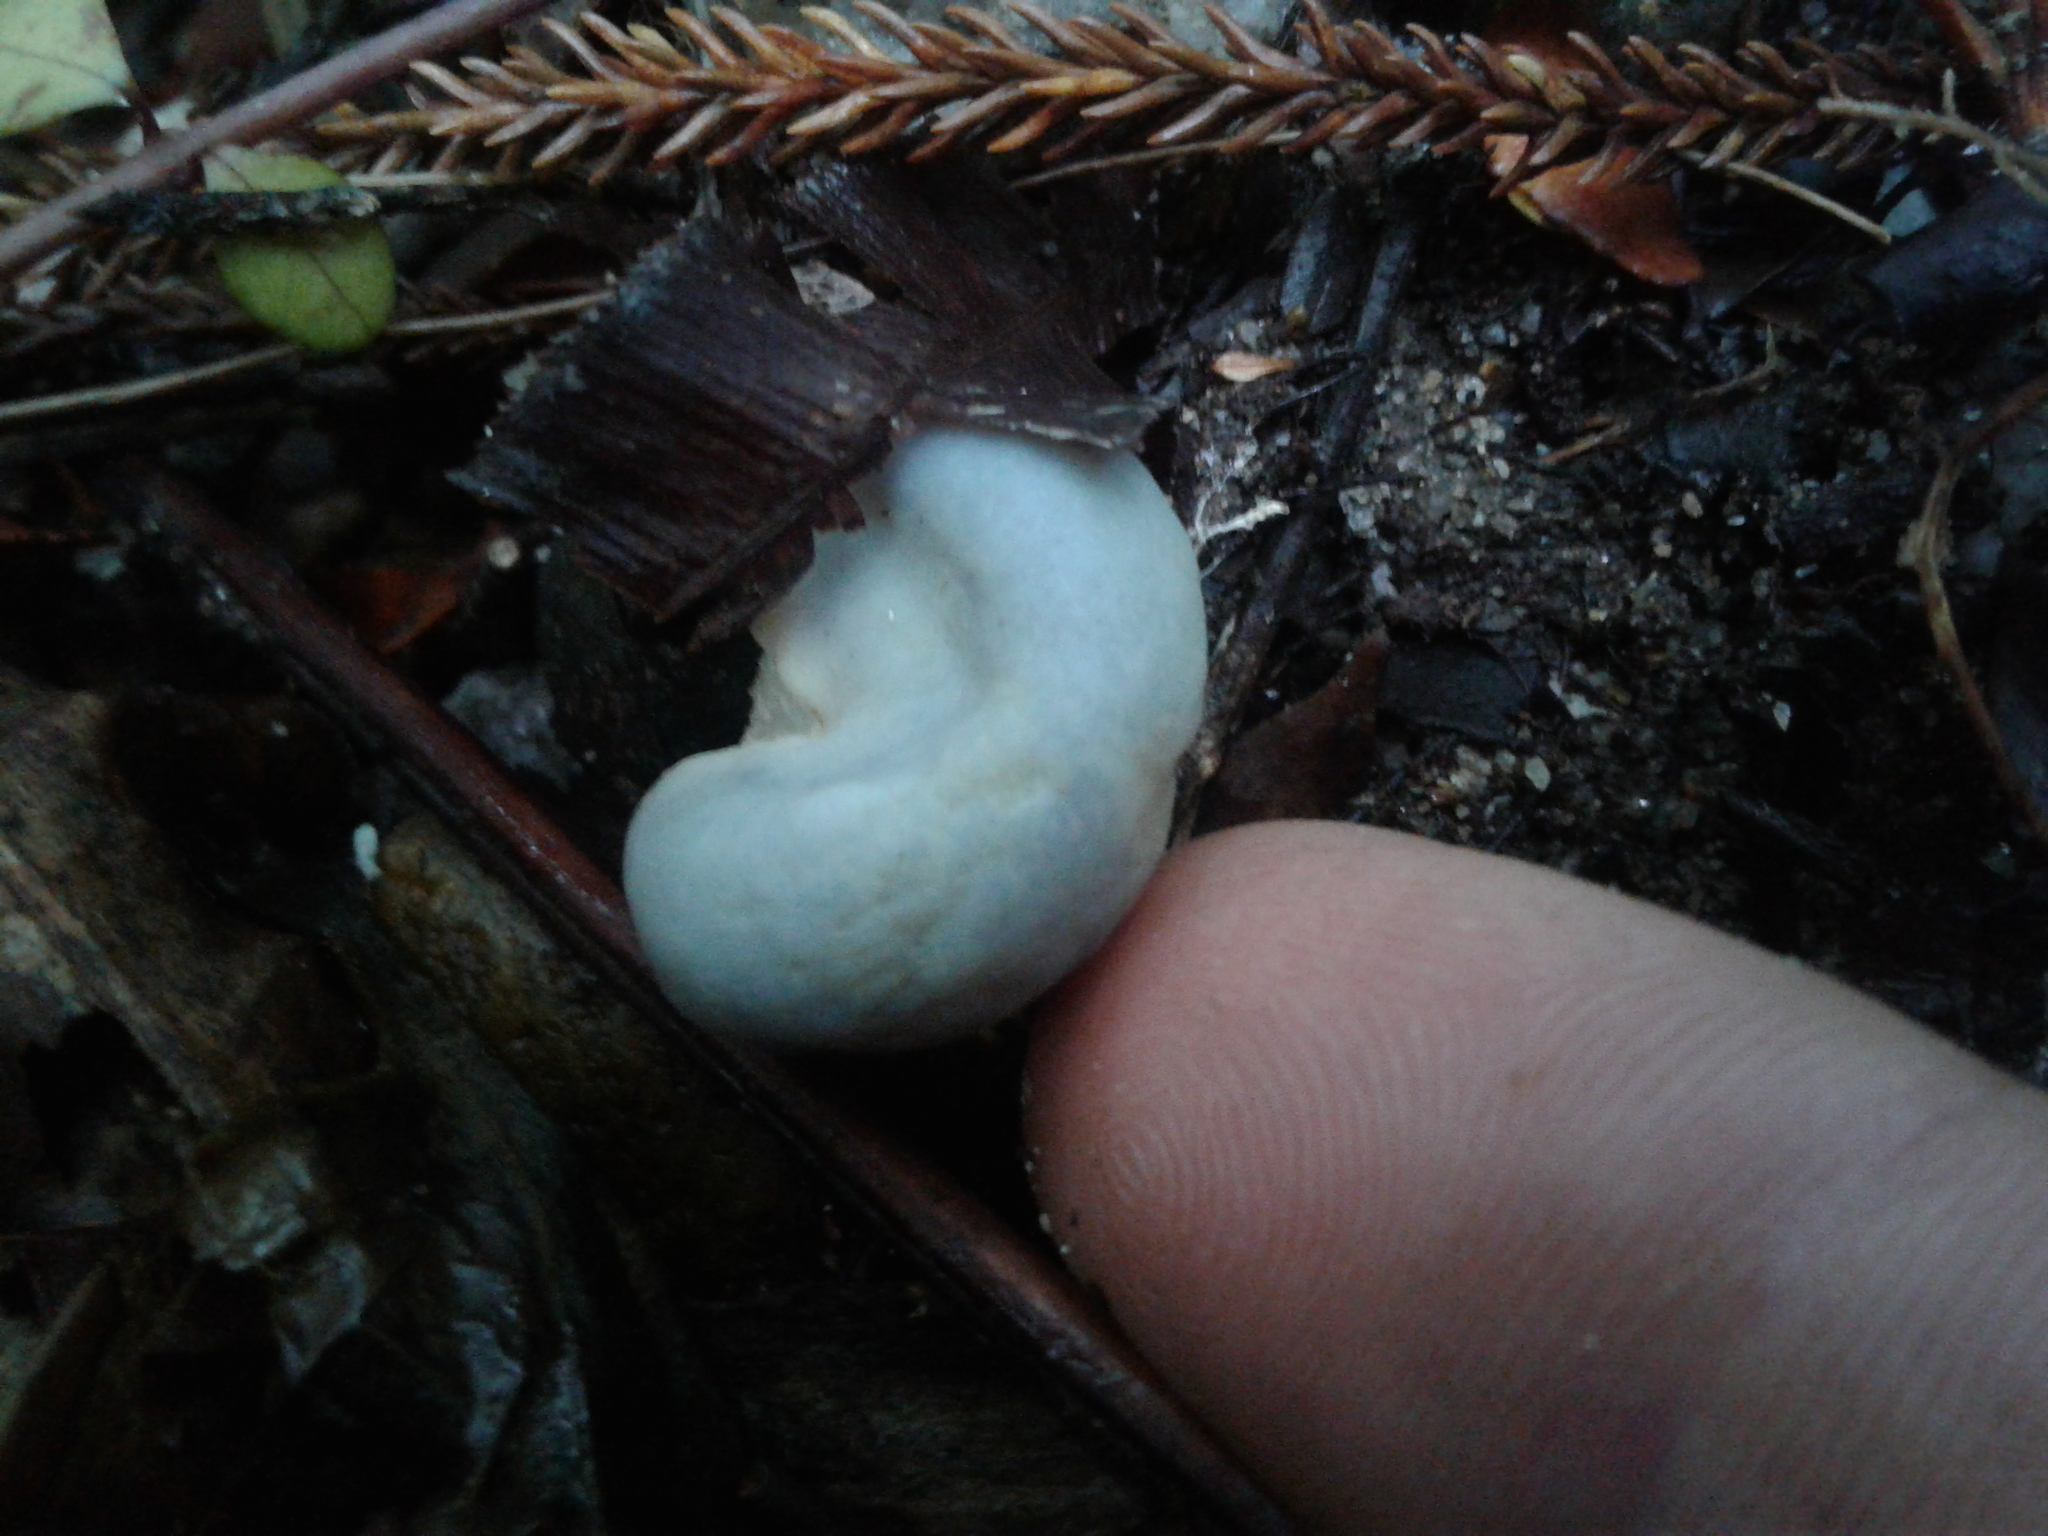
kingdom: Fungi
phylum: Basidiomycota
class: Agaricomycetes
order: Agaricales
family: Agaricaceae
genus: Clavogaster
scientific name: Clavogaster virescens
